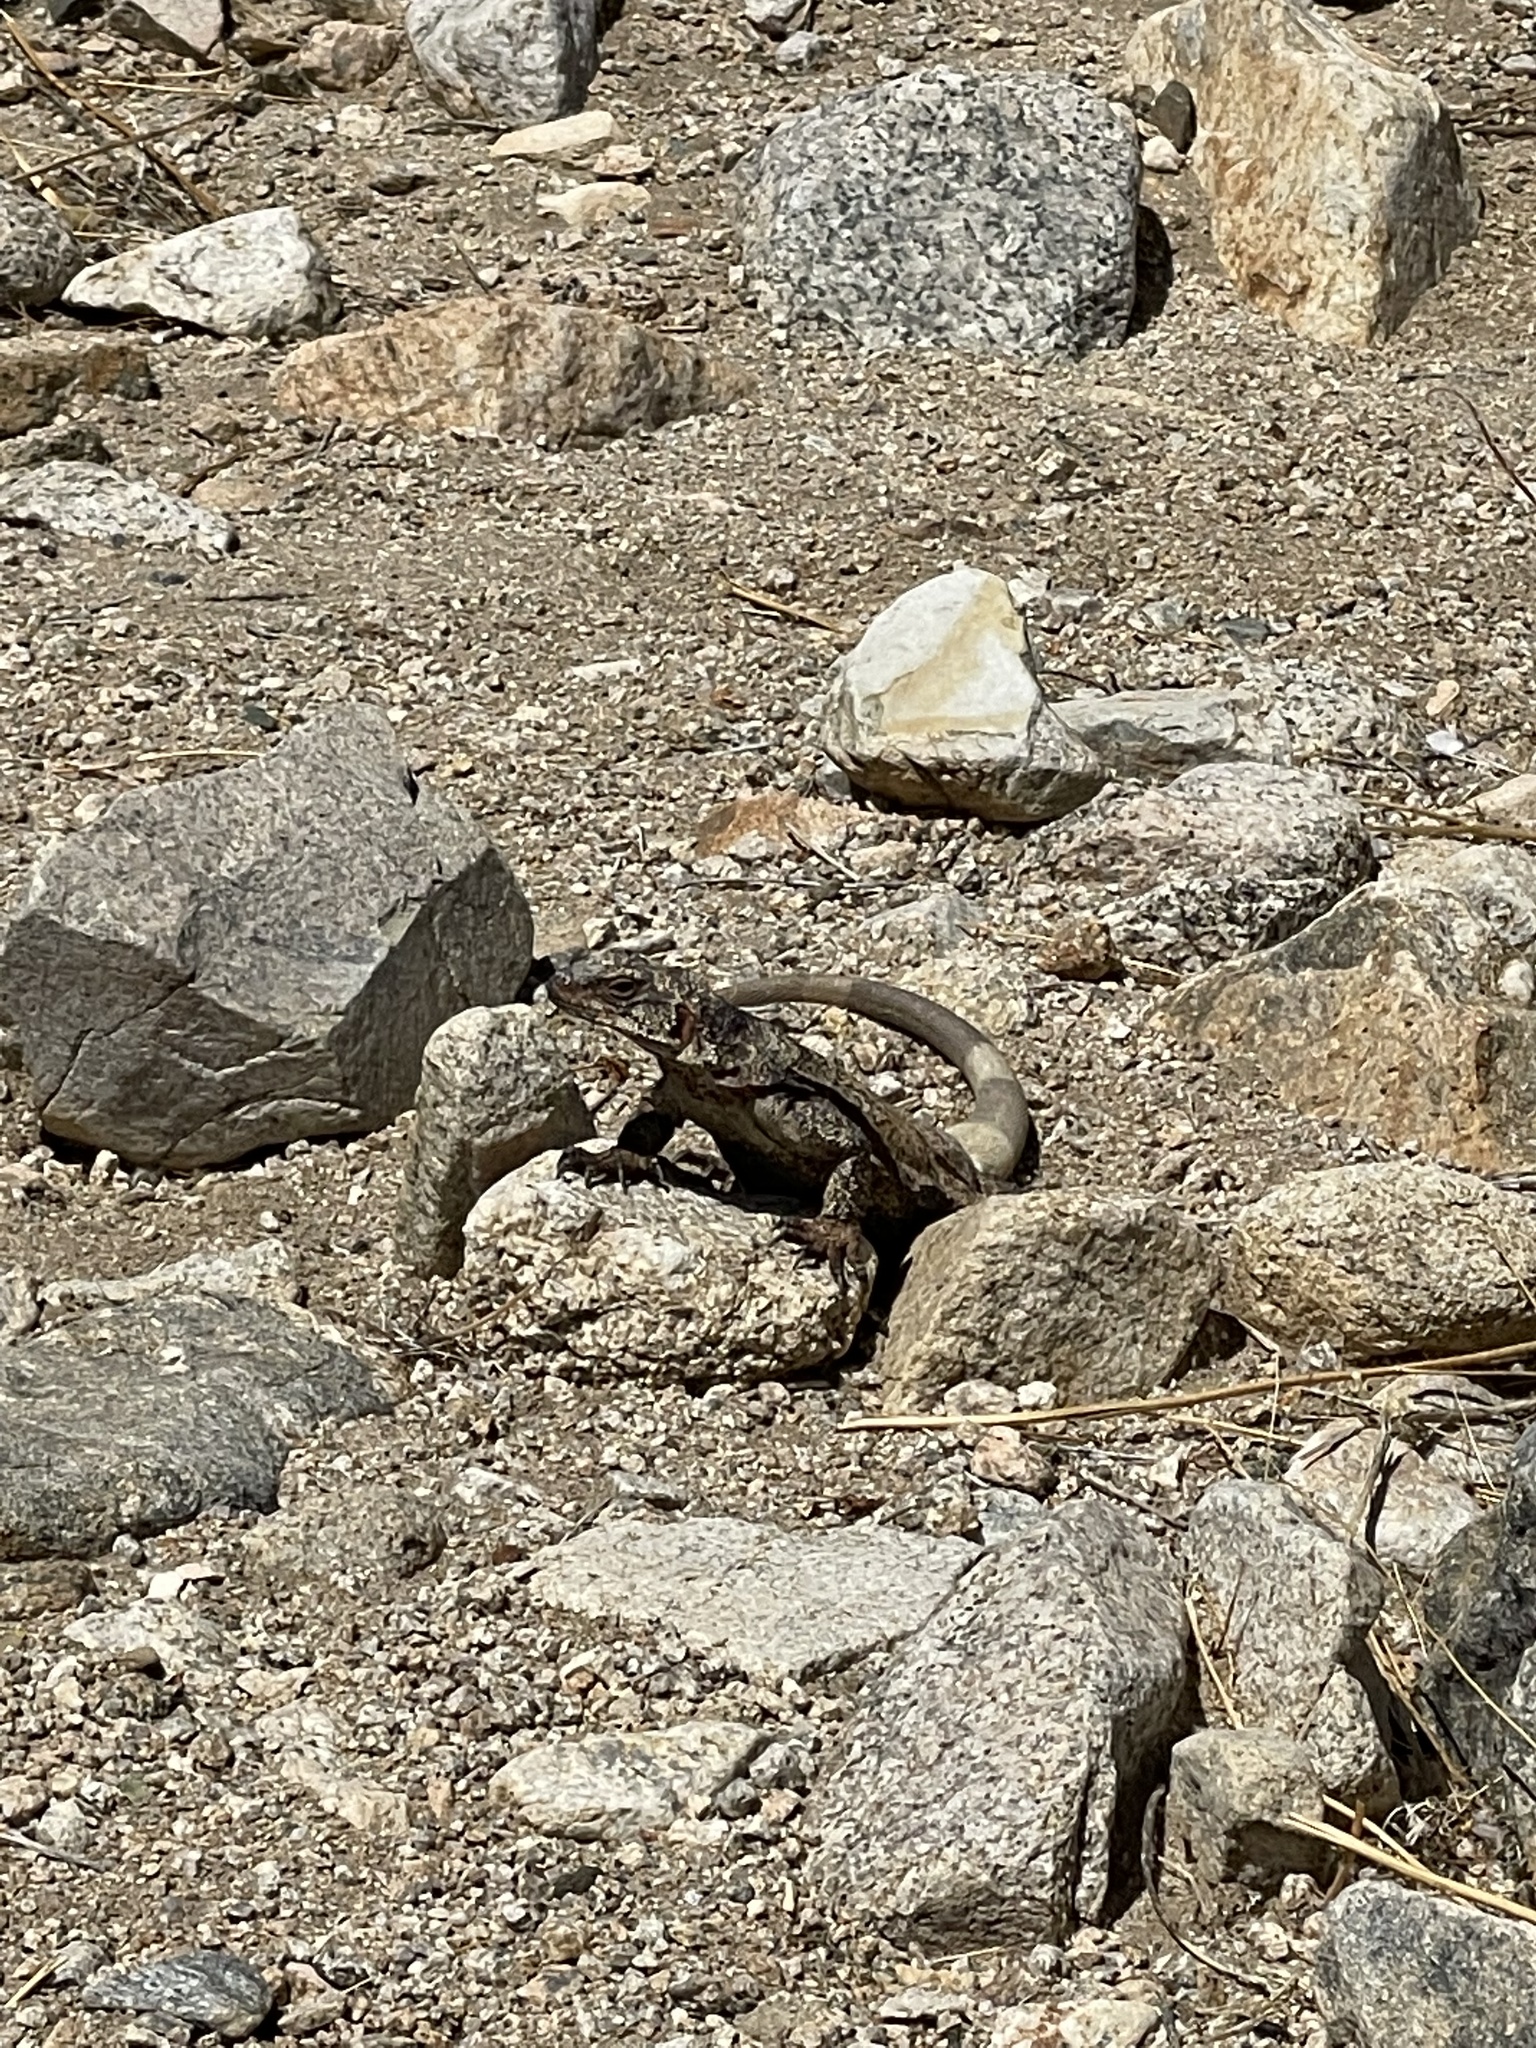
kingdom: Animalia
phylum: Chordata
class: Squamata
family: Iguanidae
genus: Sauromalus
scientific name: Sauromalus ater
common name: Northern chuckwalla
